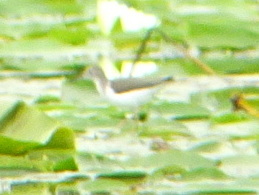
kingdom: Animalia
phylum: Chordata
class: Aves
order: Charadriiformes
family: Scolopacidae
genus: Actitis
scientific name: Actitis macularius
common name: Spotted sandpiper
